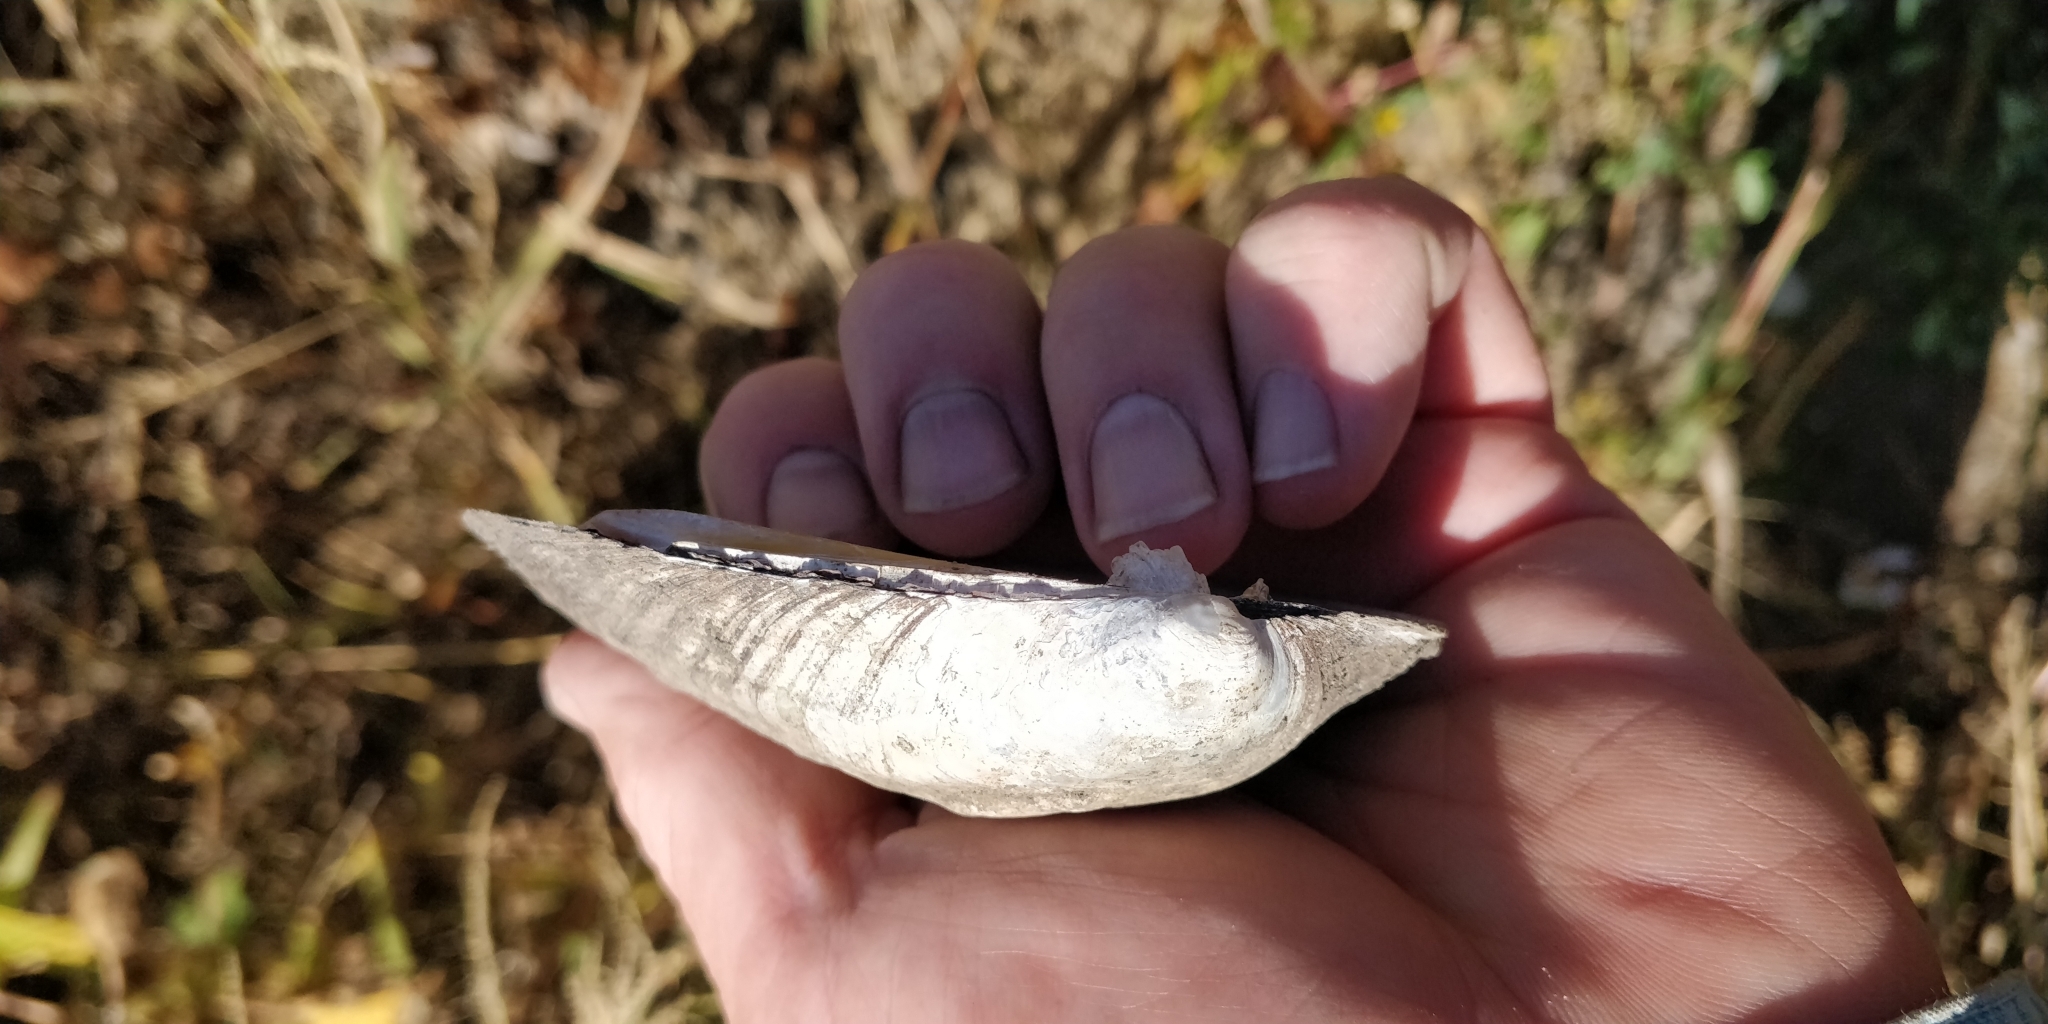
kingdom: Animalia
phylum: Mollusca
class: Bivalvia
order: Unionida
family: Unionidae
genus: Amblema
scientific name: Amblema plicata
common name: Threeridge
